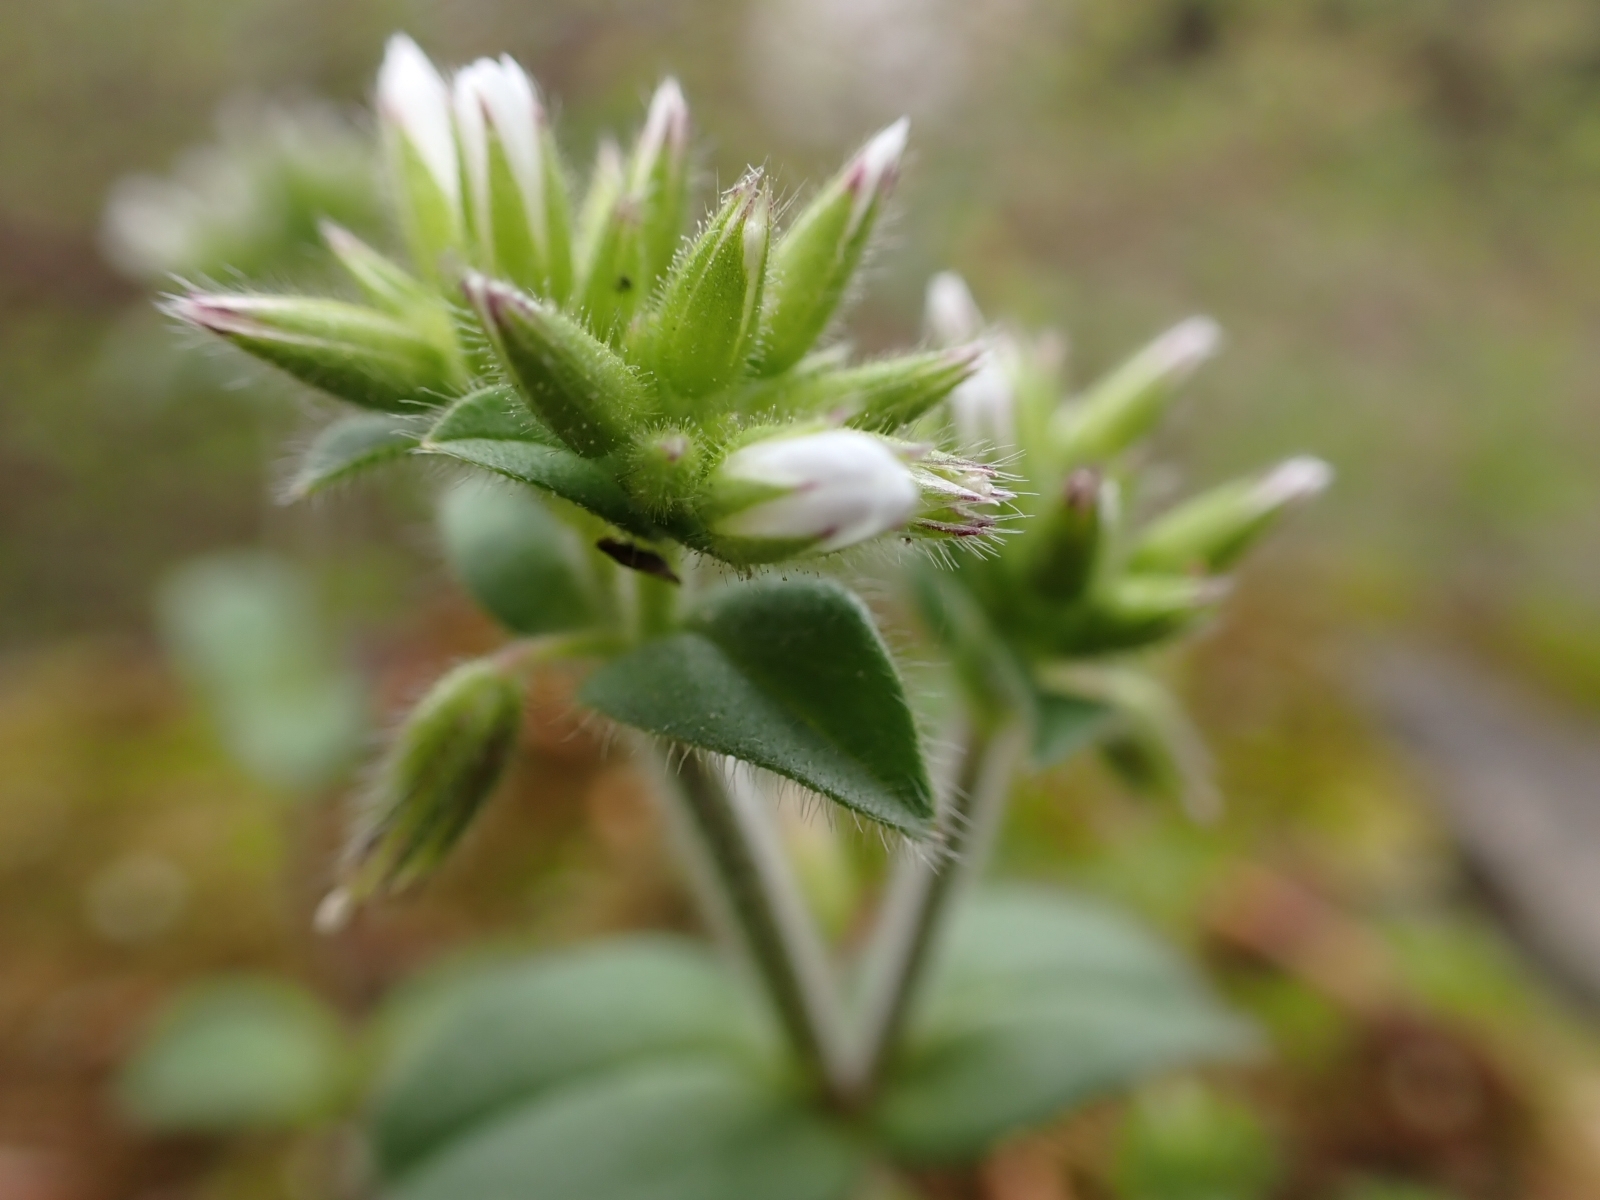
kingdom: Plantae
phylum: Tracheophyta
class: Magnoliopsida
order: Caryophyllales
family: Caryophyllaceae
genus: Cerastium
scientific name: Cerastium glomeratum
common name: Sticky chickweed
